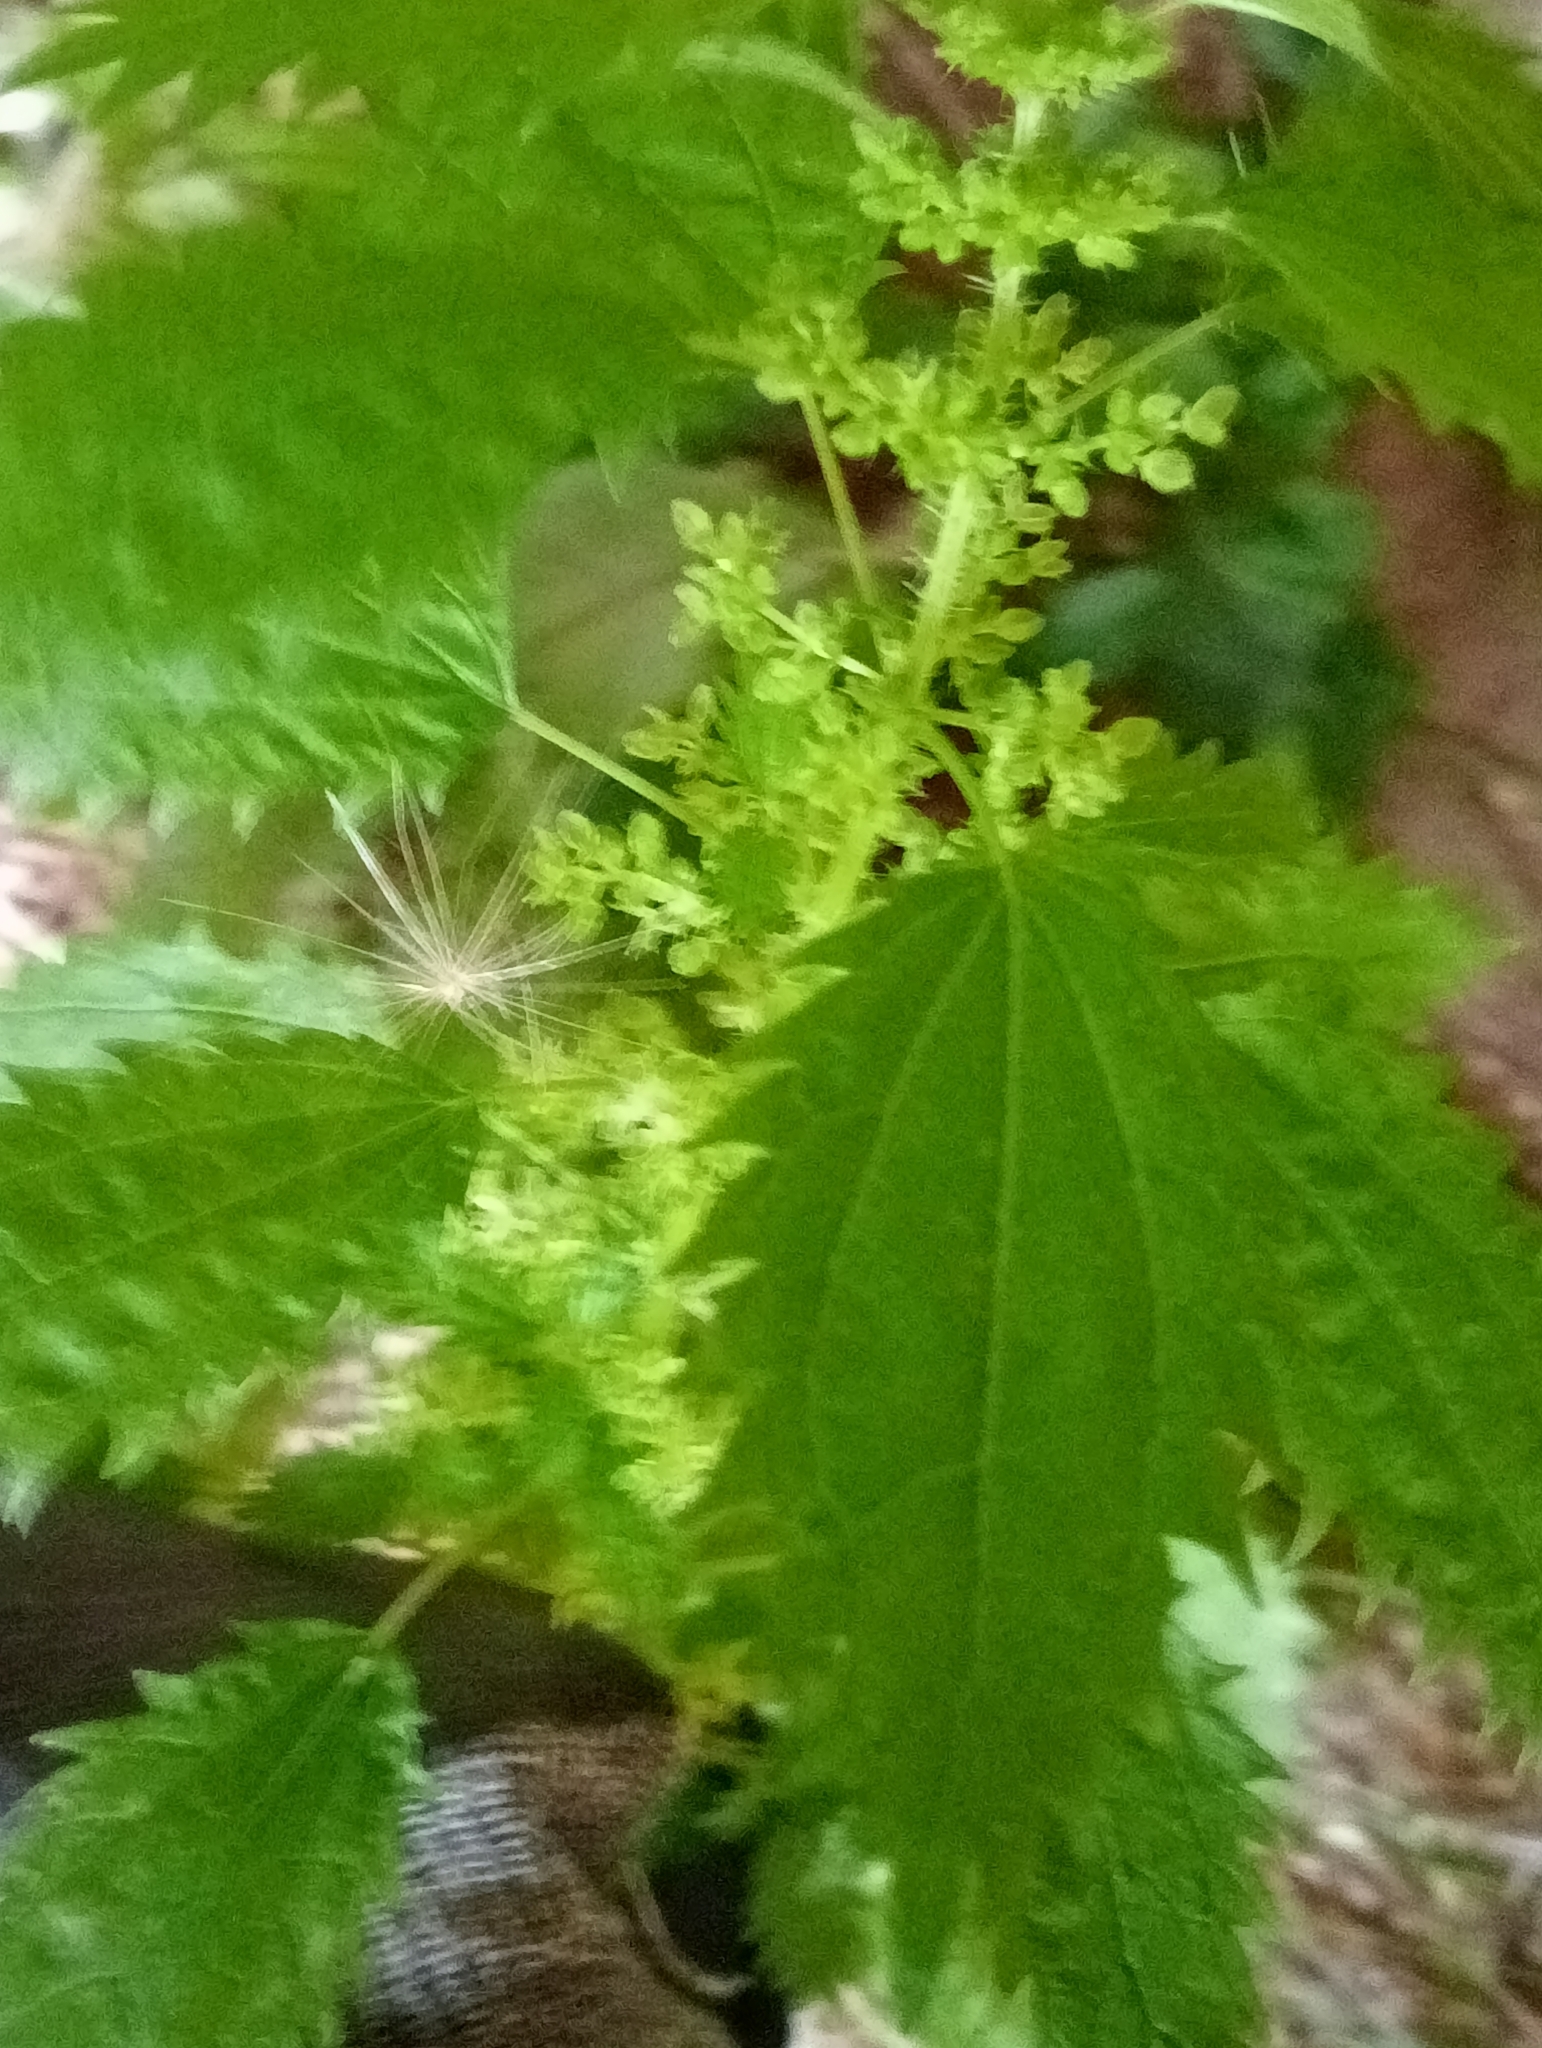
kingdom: Plantae
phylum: Tracheophyta
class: Magnoliopsida
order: Rosales
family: Urticaceae
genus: Urtica
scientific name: Urtica urens
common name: Dwarf nettle
